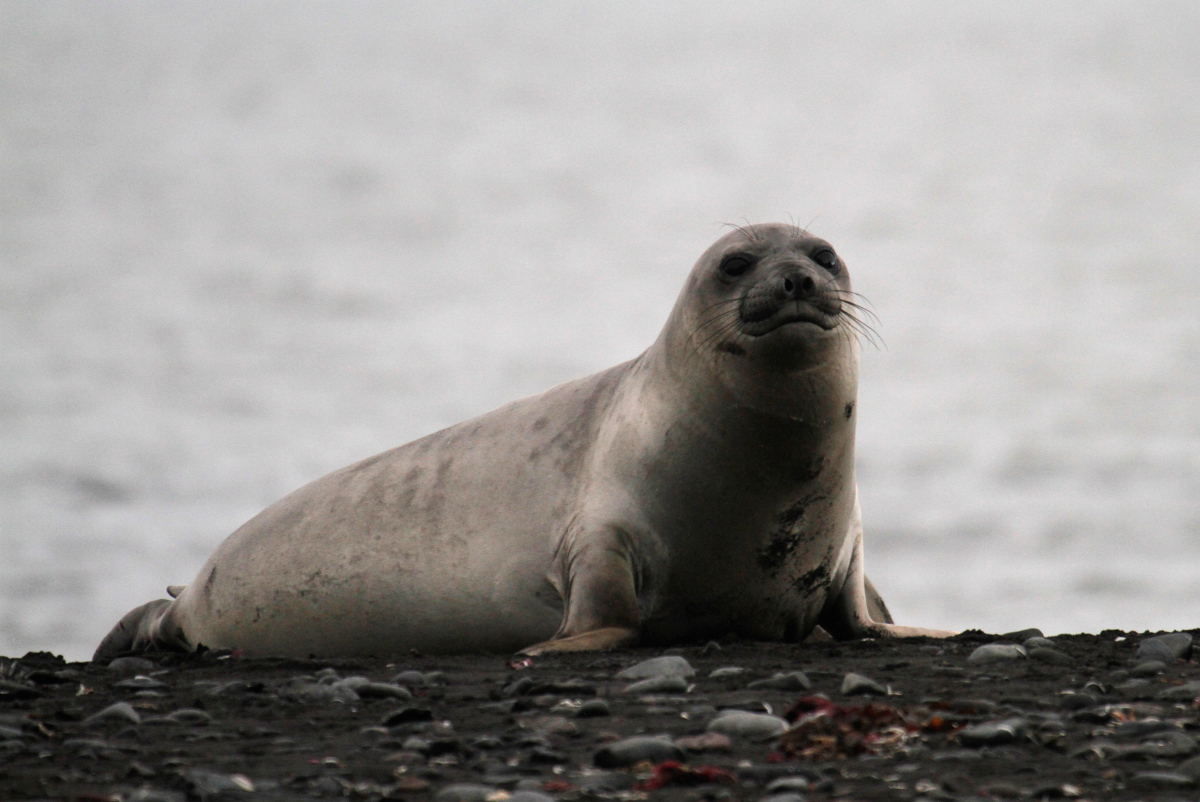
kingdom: Animalia
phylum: Chordata
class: Mammalia
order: Carnivora
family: Phocidae
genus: Mirounga
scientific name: Mirounga leonina
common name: Southern elephant seal
